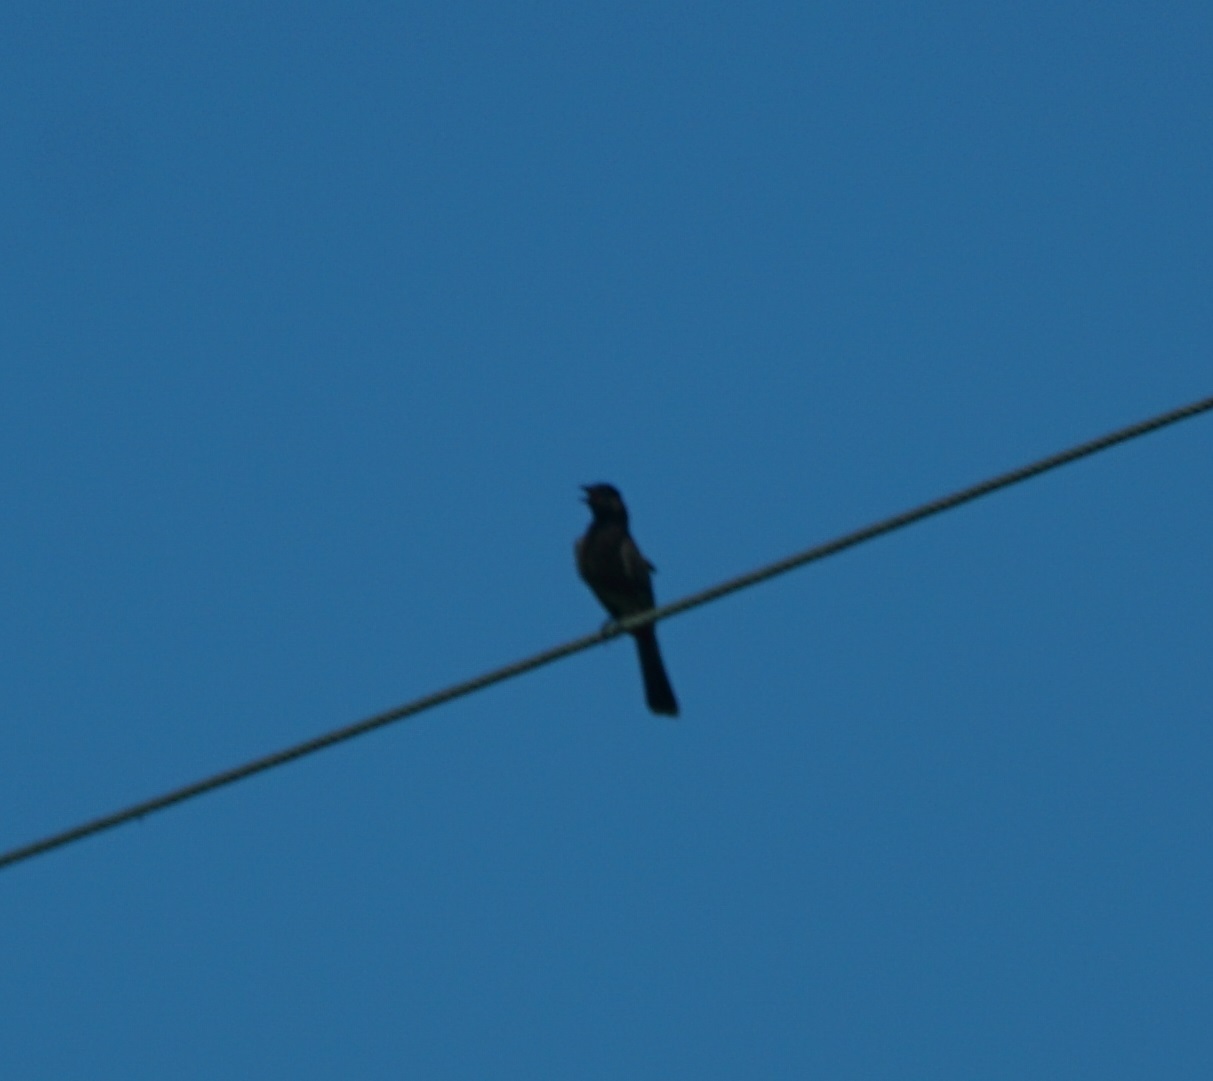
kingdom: Animalia
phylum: Chordata
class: Aves
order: Passeriformes
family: Pycnonotidae
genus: Pycnonotus
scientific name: Pycnonotus cafer
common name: Red-vented bulbul
